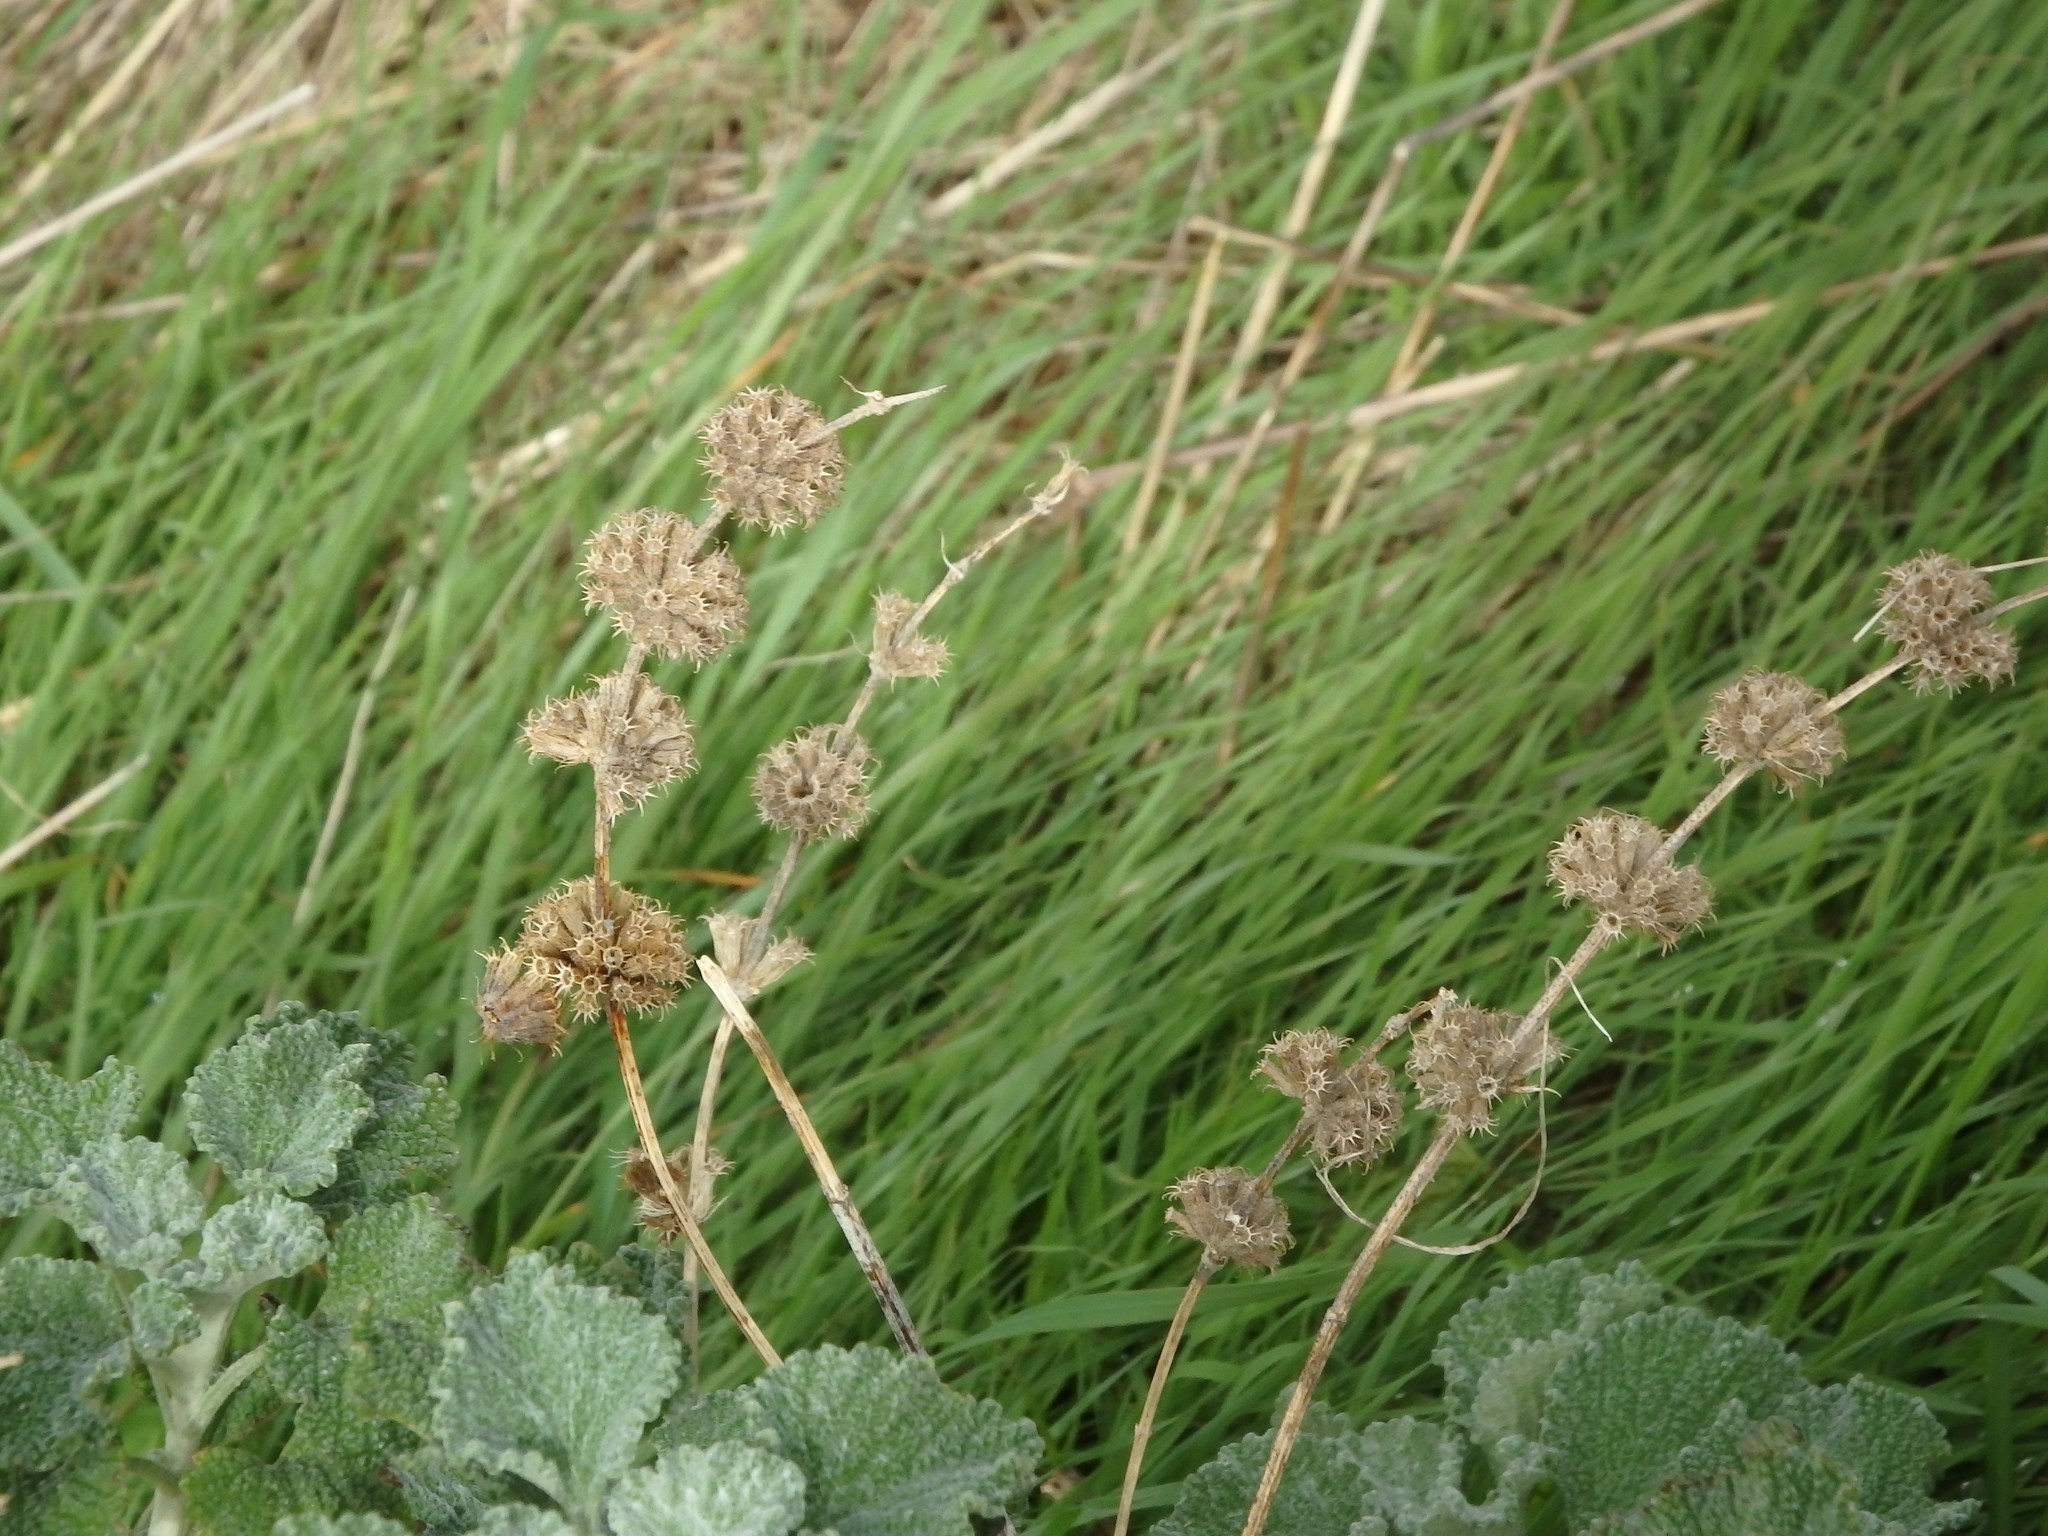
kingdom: Plantae
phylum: Tracheophyta
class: Magnoliopsida
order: Lamiales
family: Lamiaceae
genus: Marrubium
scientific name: Marrubium vulgare
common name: Horehound
